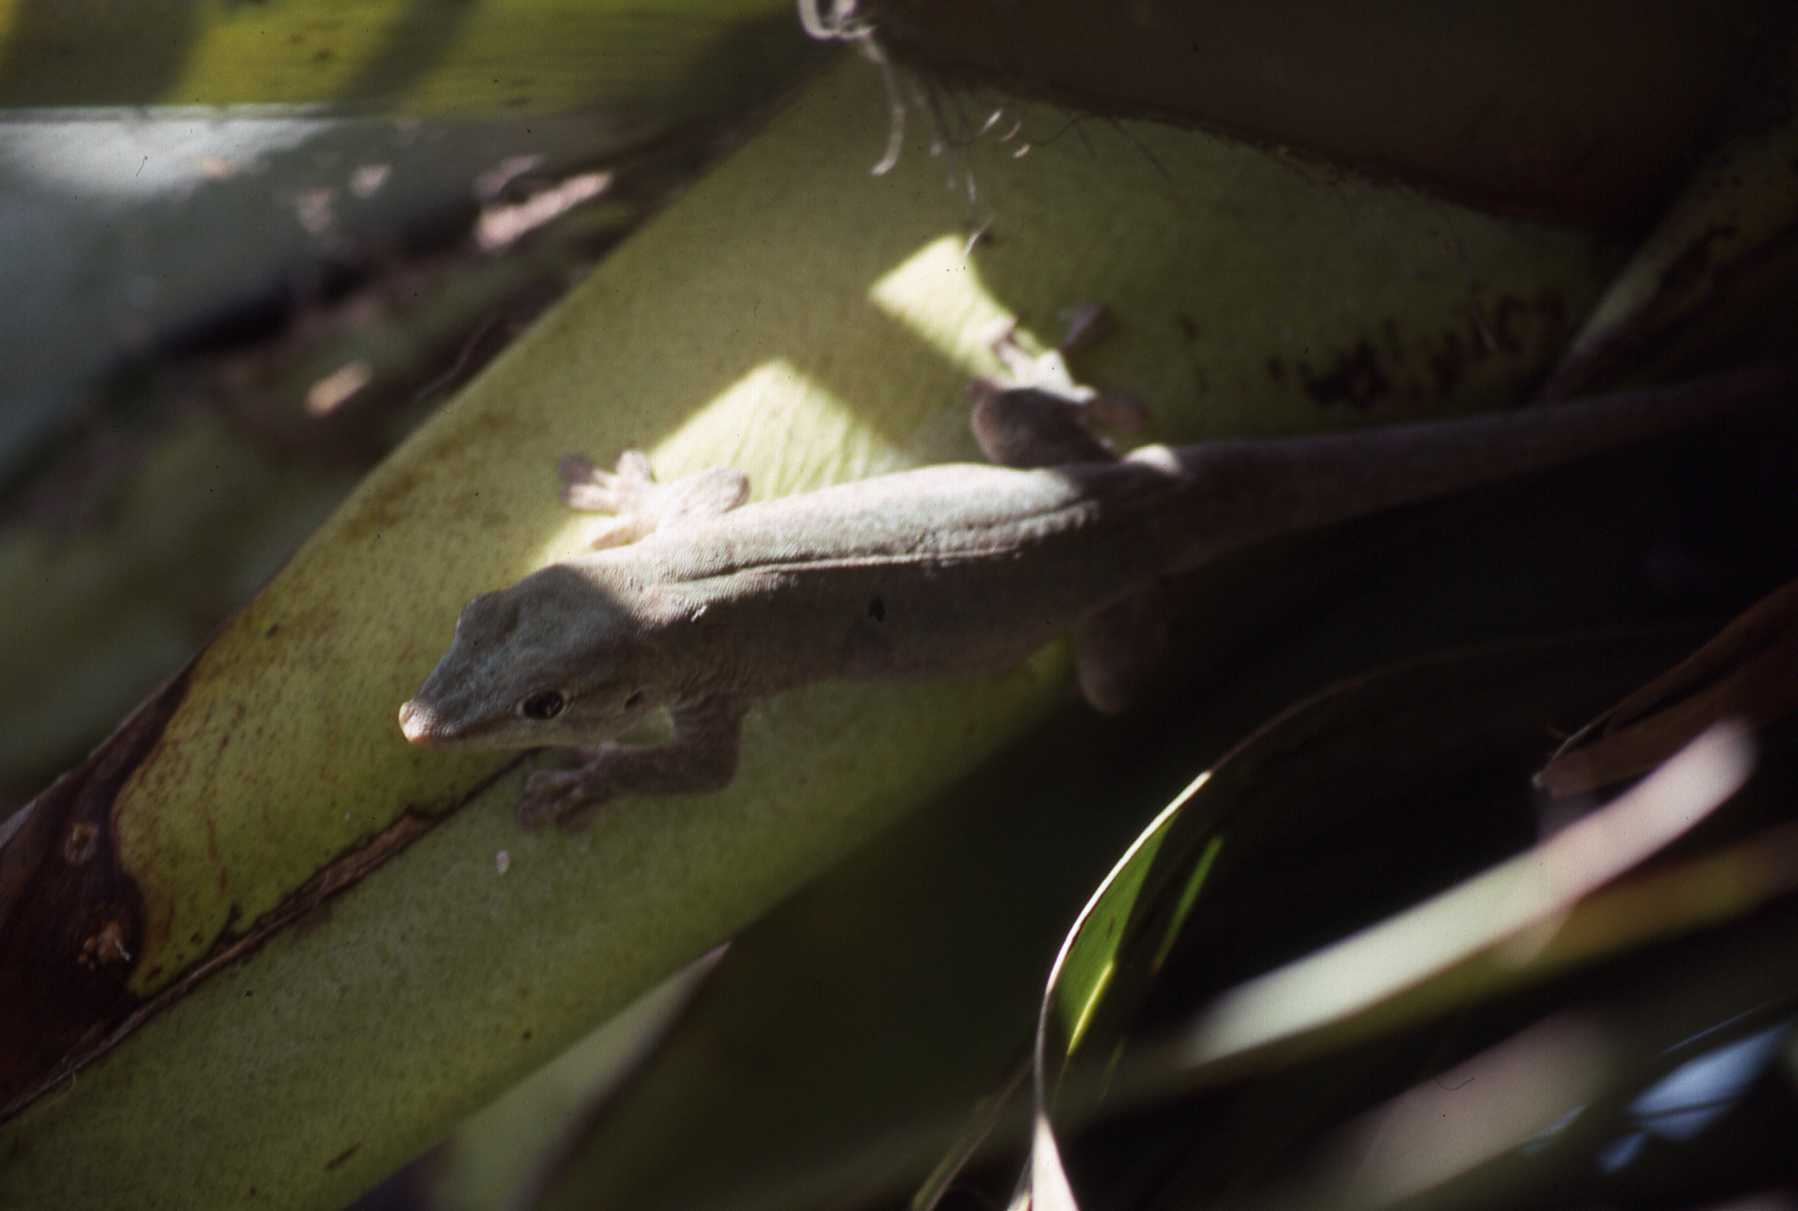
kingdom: Animalia
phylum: Chordata
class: Squamata
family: Gekkonidae
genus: Phelsuma
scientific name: Phelsuma guentheri
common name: Round lsland day gecko
